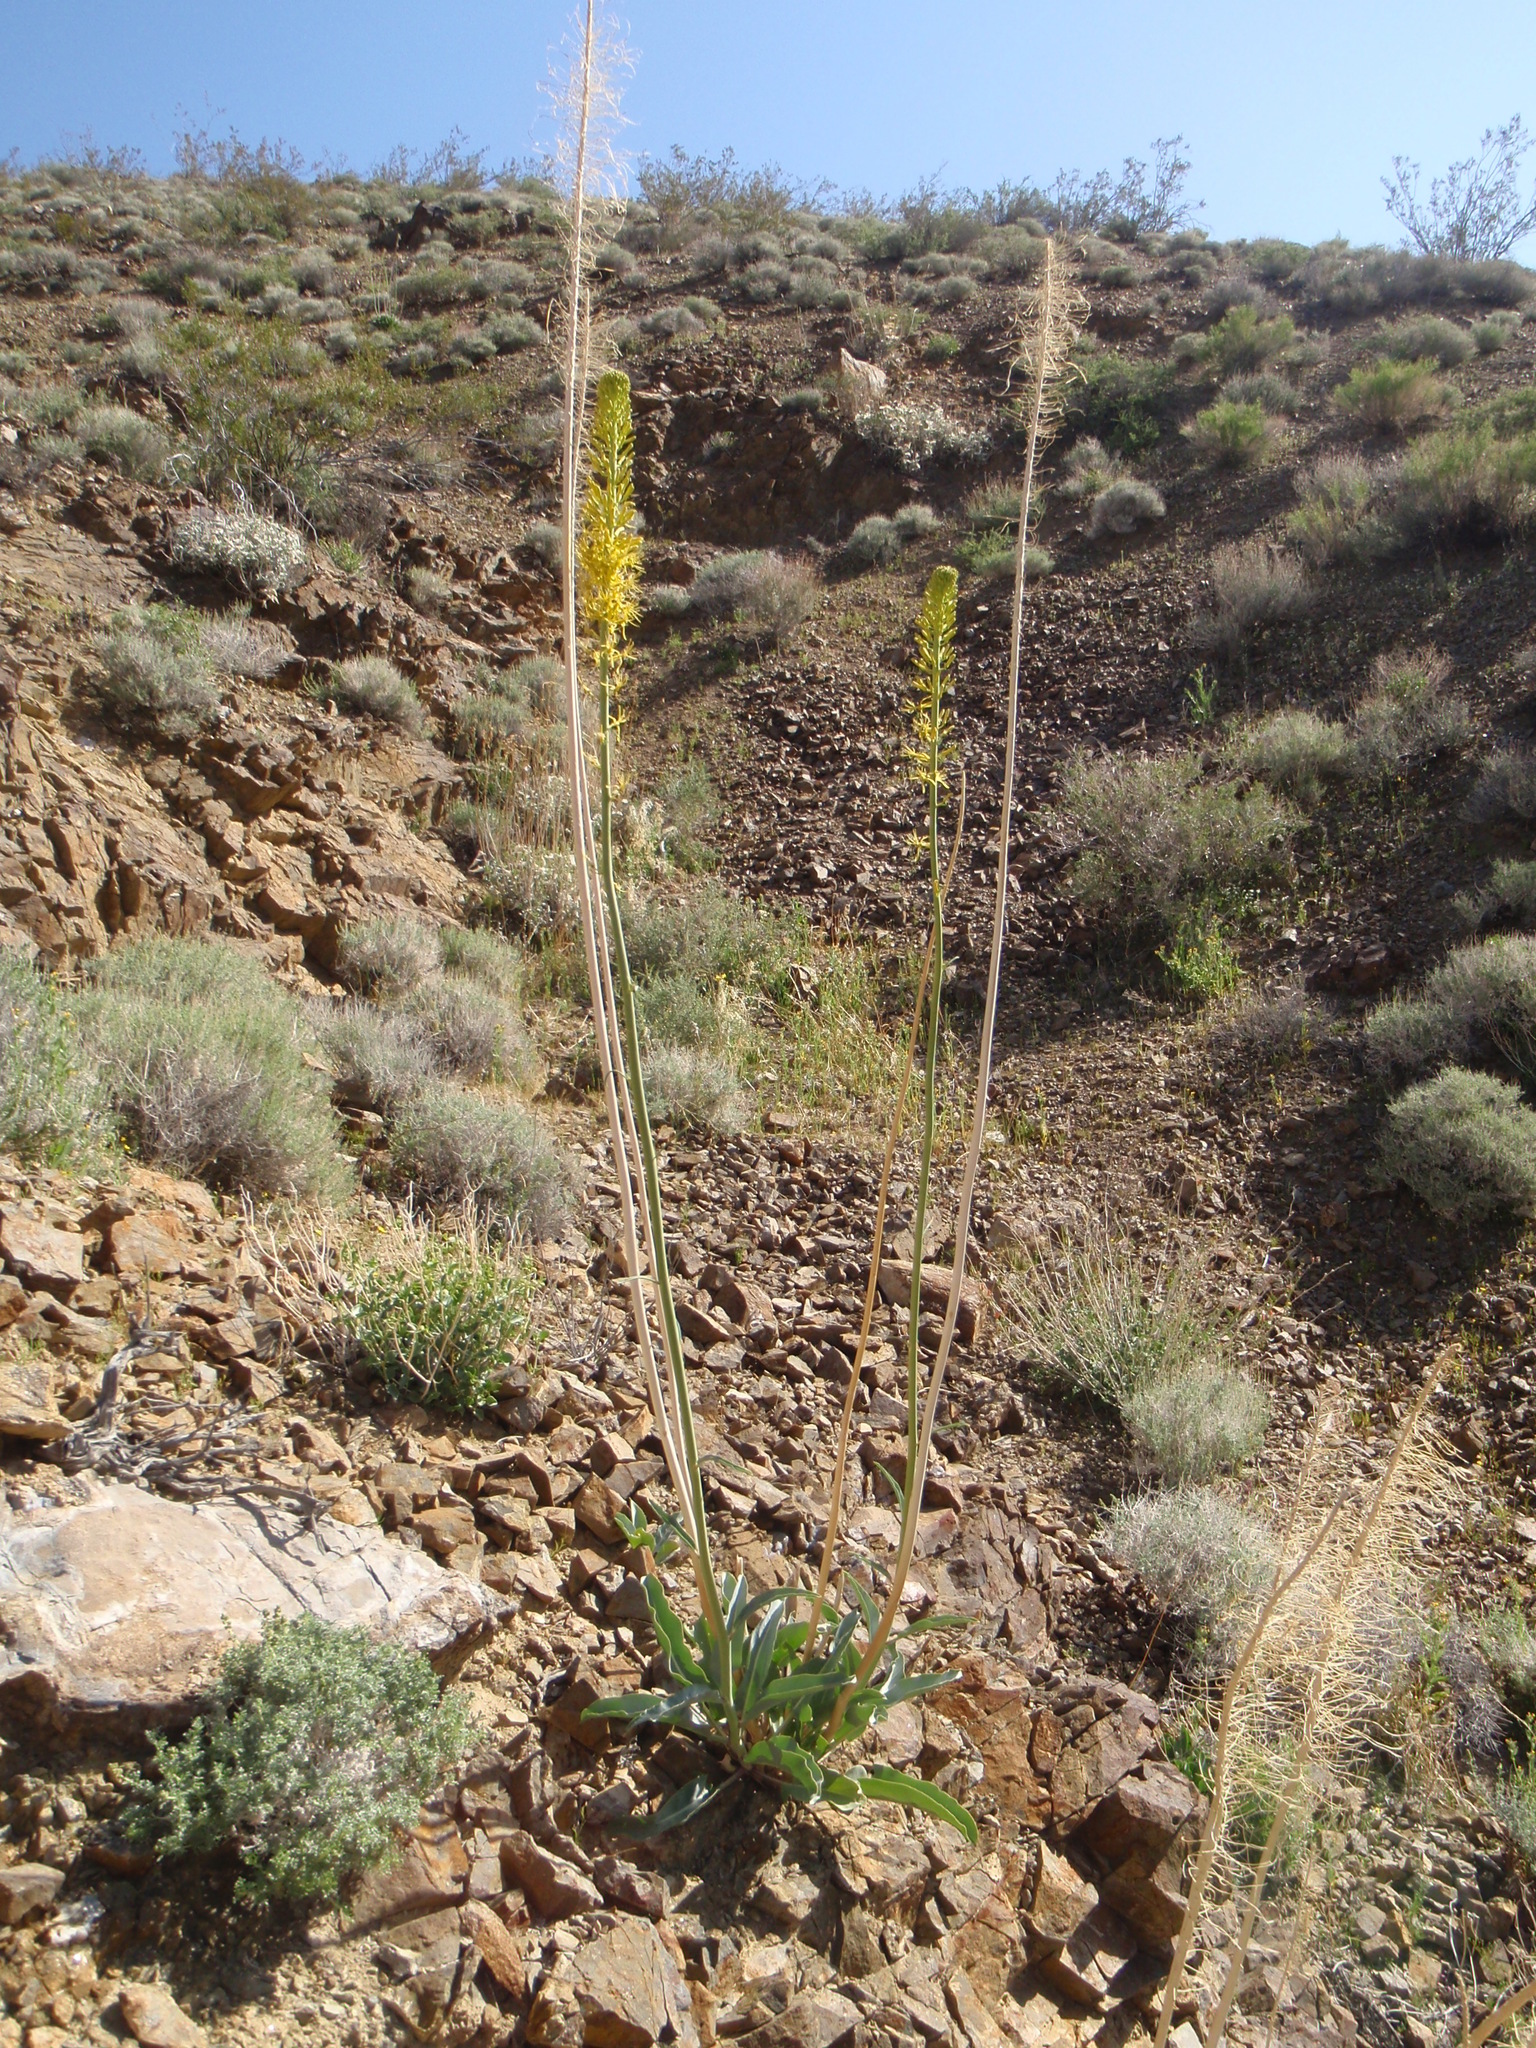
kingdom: Plantae
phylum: Tracheophyta
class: Magnoliopsida
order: Brassicales
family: Brassicaceae
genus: Stanleya
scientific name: Stanleya elata
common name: Panamint prince's plume
